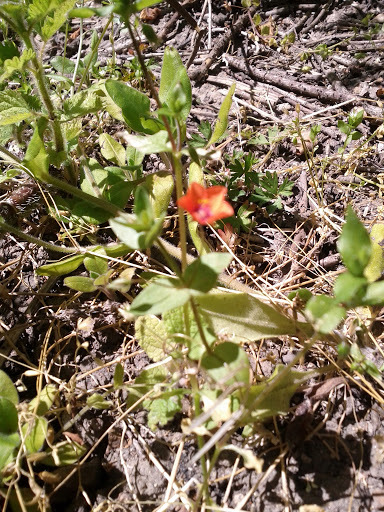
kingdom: Plantae
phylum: Tracheophyta
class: Magnoliopsida
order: Ericales
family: Primulaceae
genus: Lysimachia
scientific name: Lysimachia arvensis
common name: Scarlet pimpernel
